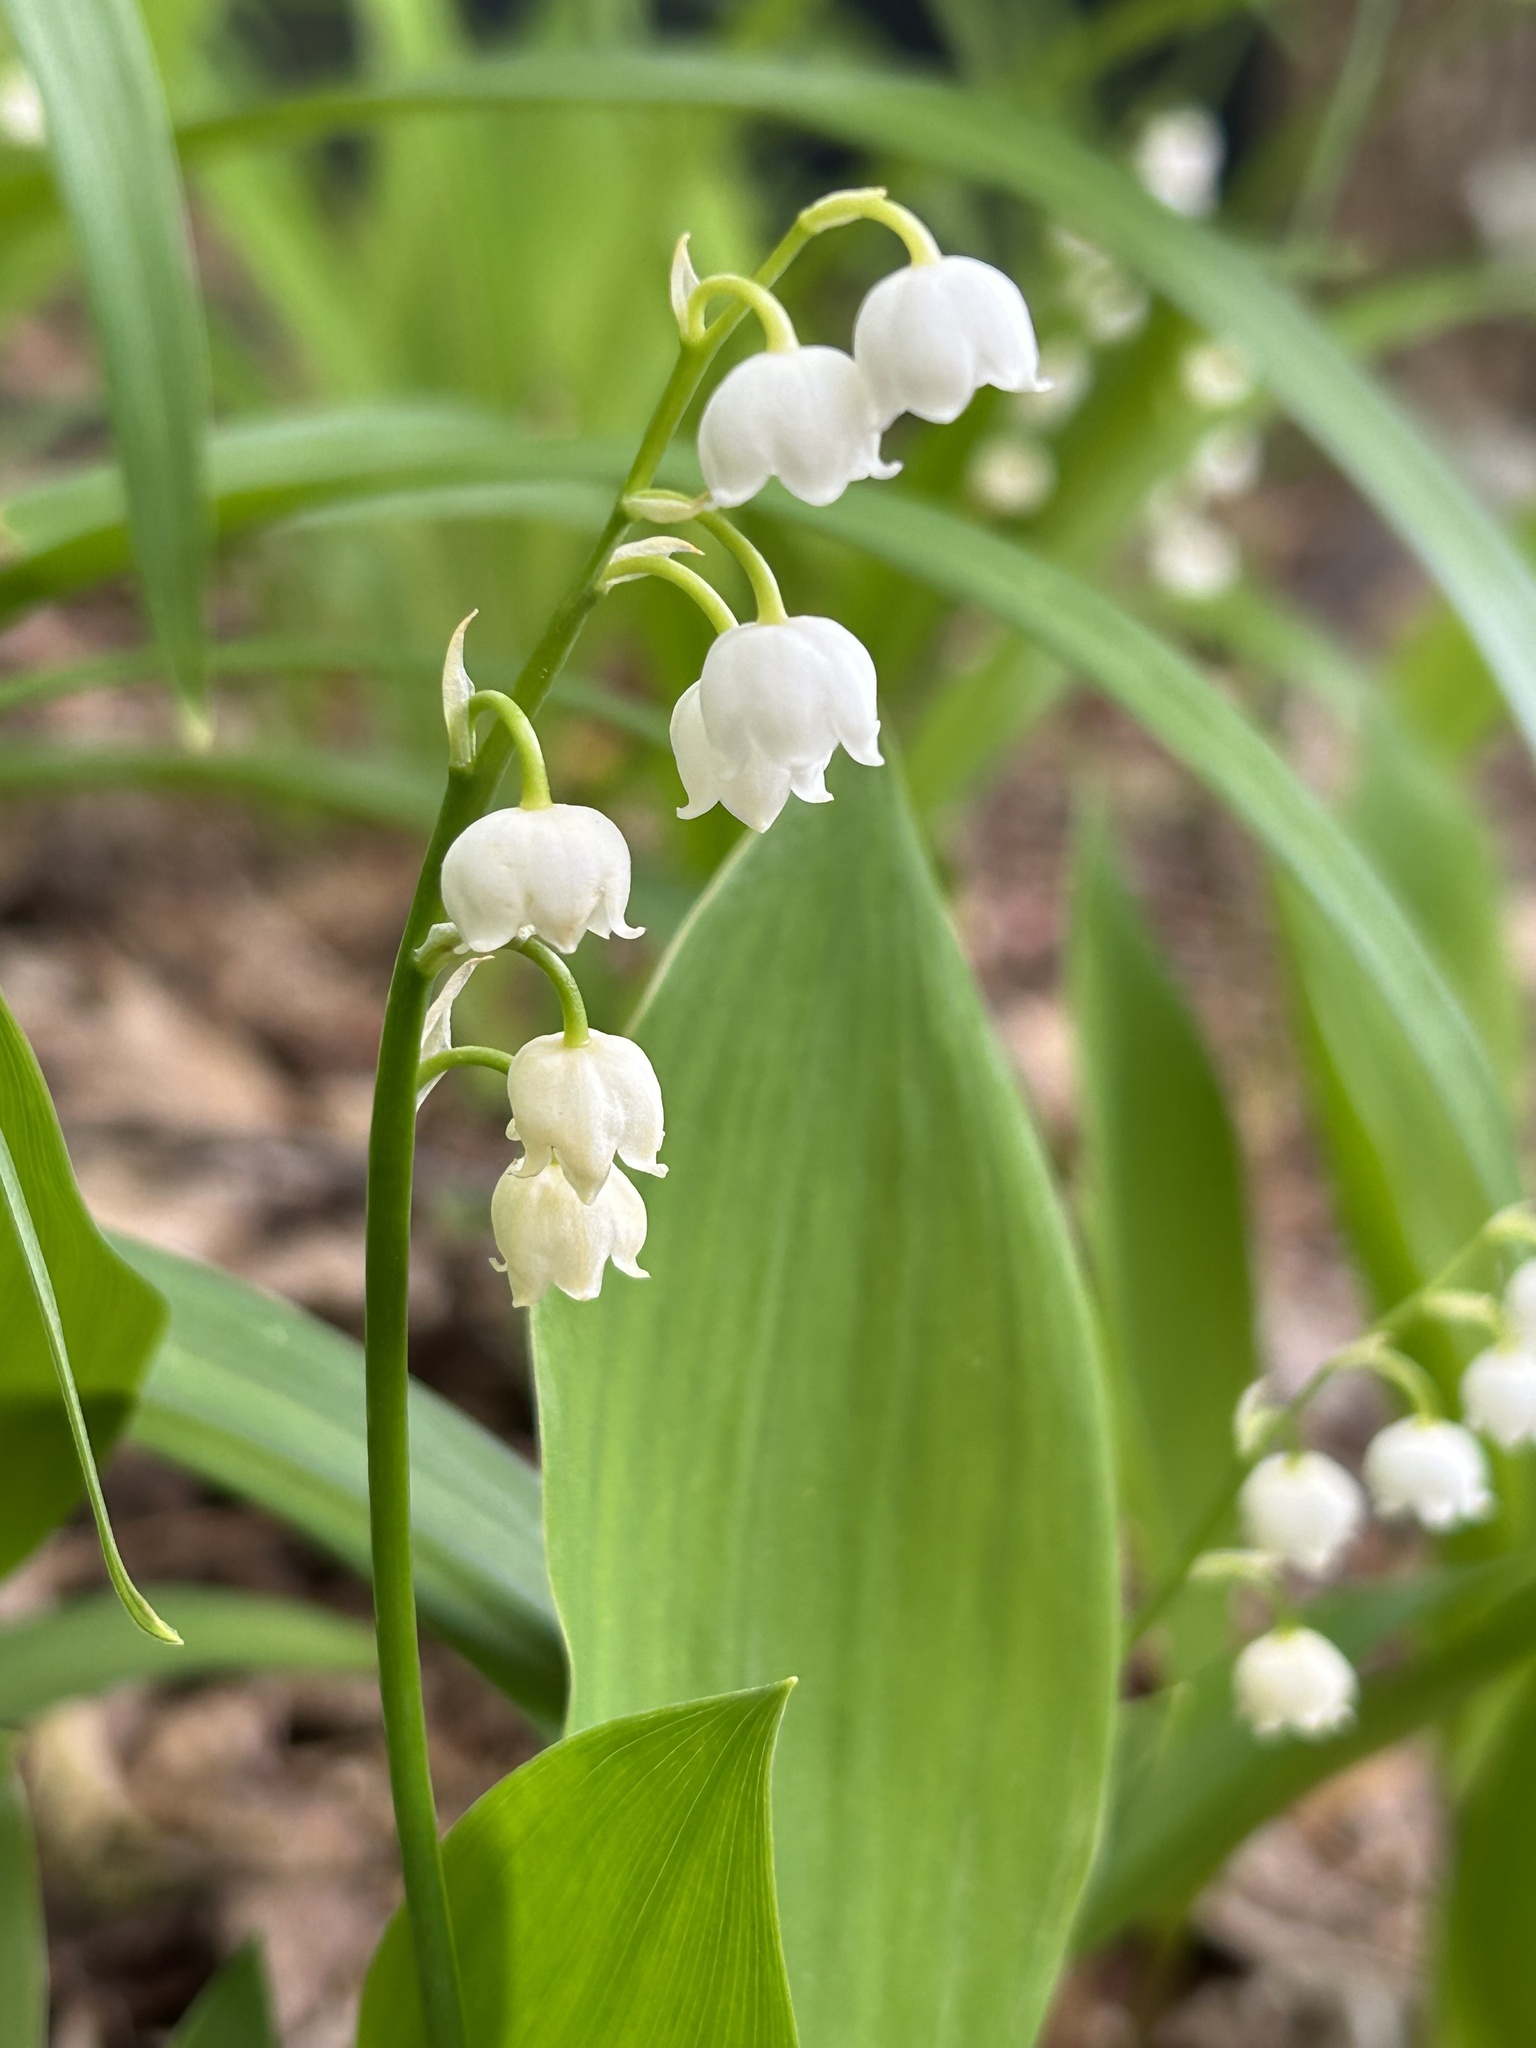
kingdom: Plantae
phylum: Tracheophyta
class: Liliopsida
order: Asparagales
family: Asparagaceae
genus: Convallaria
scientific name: Convallaria majalis
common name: Lily-of-the-valley
